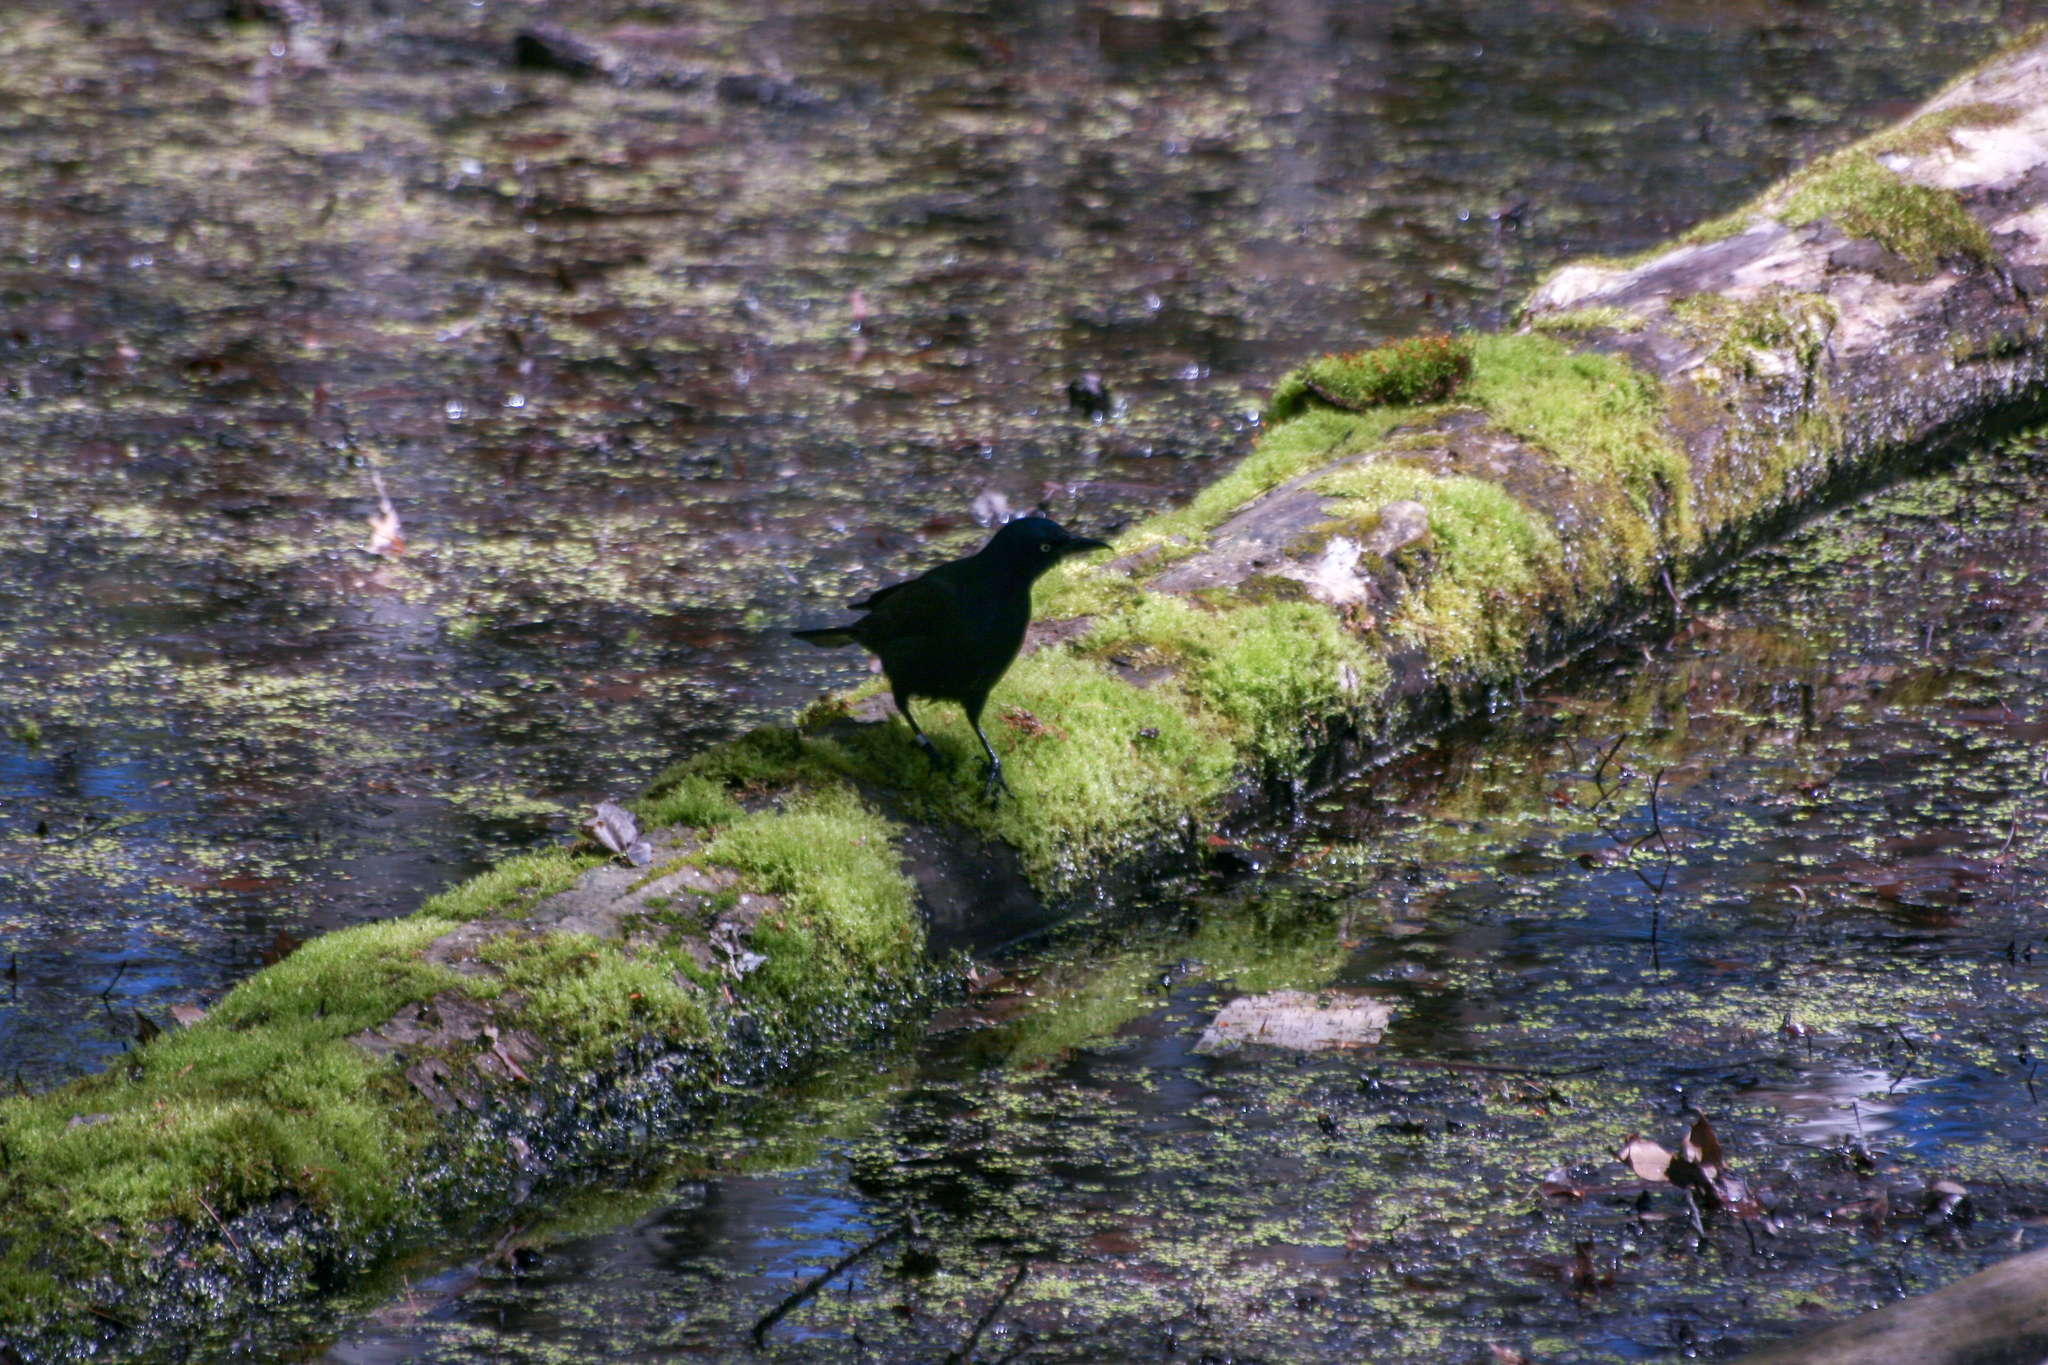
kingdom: Animalia
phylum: Chordata
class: Aves
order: Passeriformes
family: Icteridae
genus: Quiscalus
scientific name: Quiscalus quiscula
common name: Common grackle
